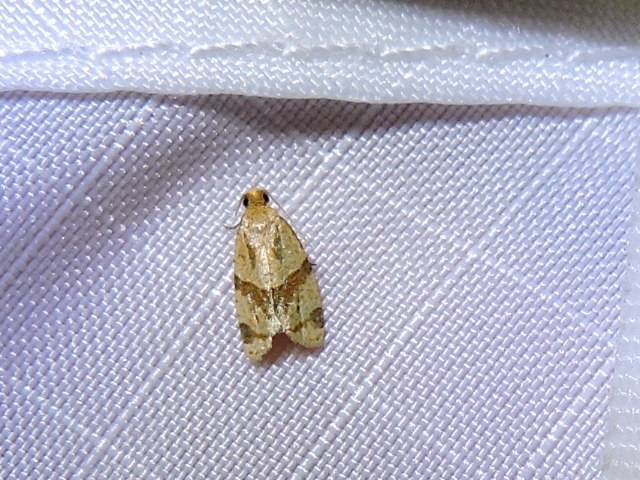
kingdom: Animalia
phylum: Arthropoda
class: Insecta
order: Lepidoptera
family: Tortricidae
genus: Clepsis
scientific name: Clepsis peritana
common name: Garden tortrix
